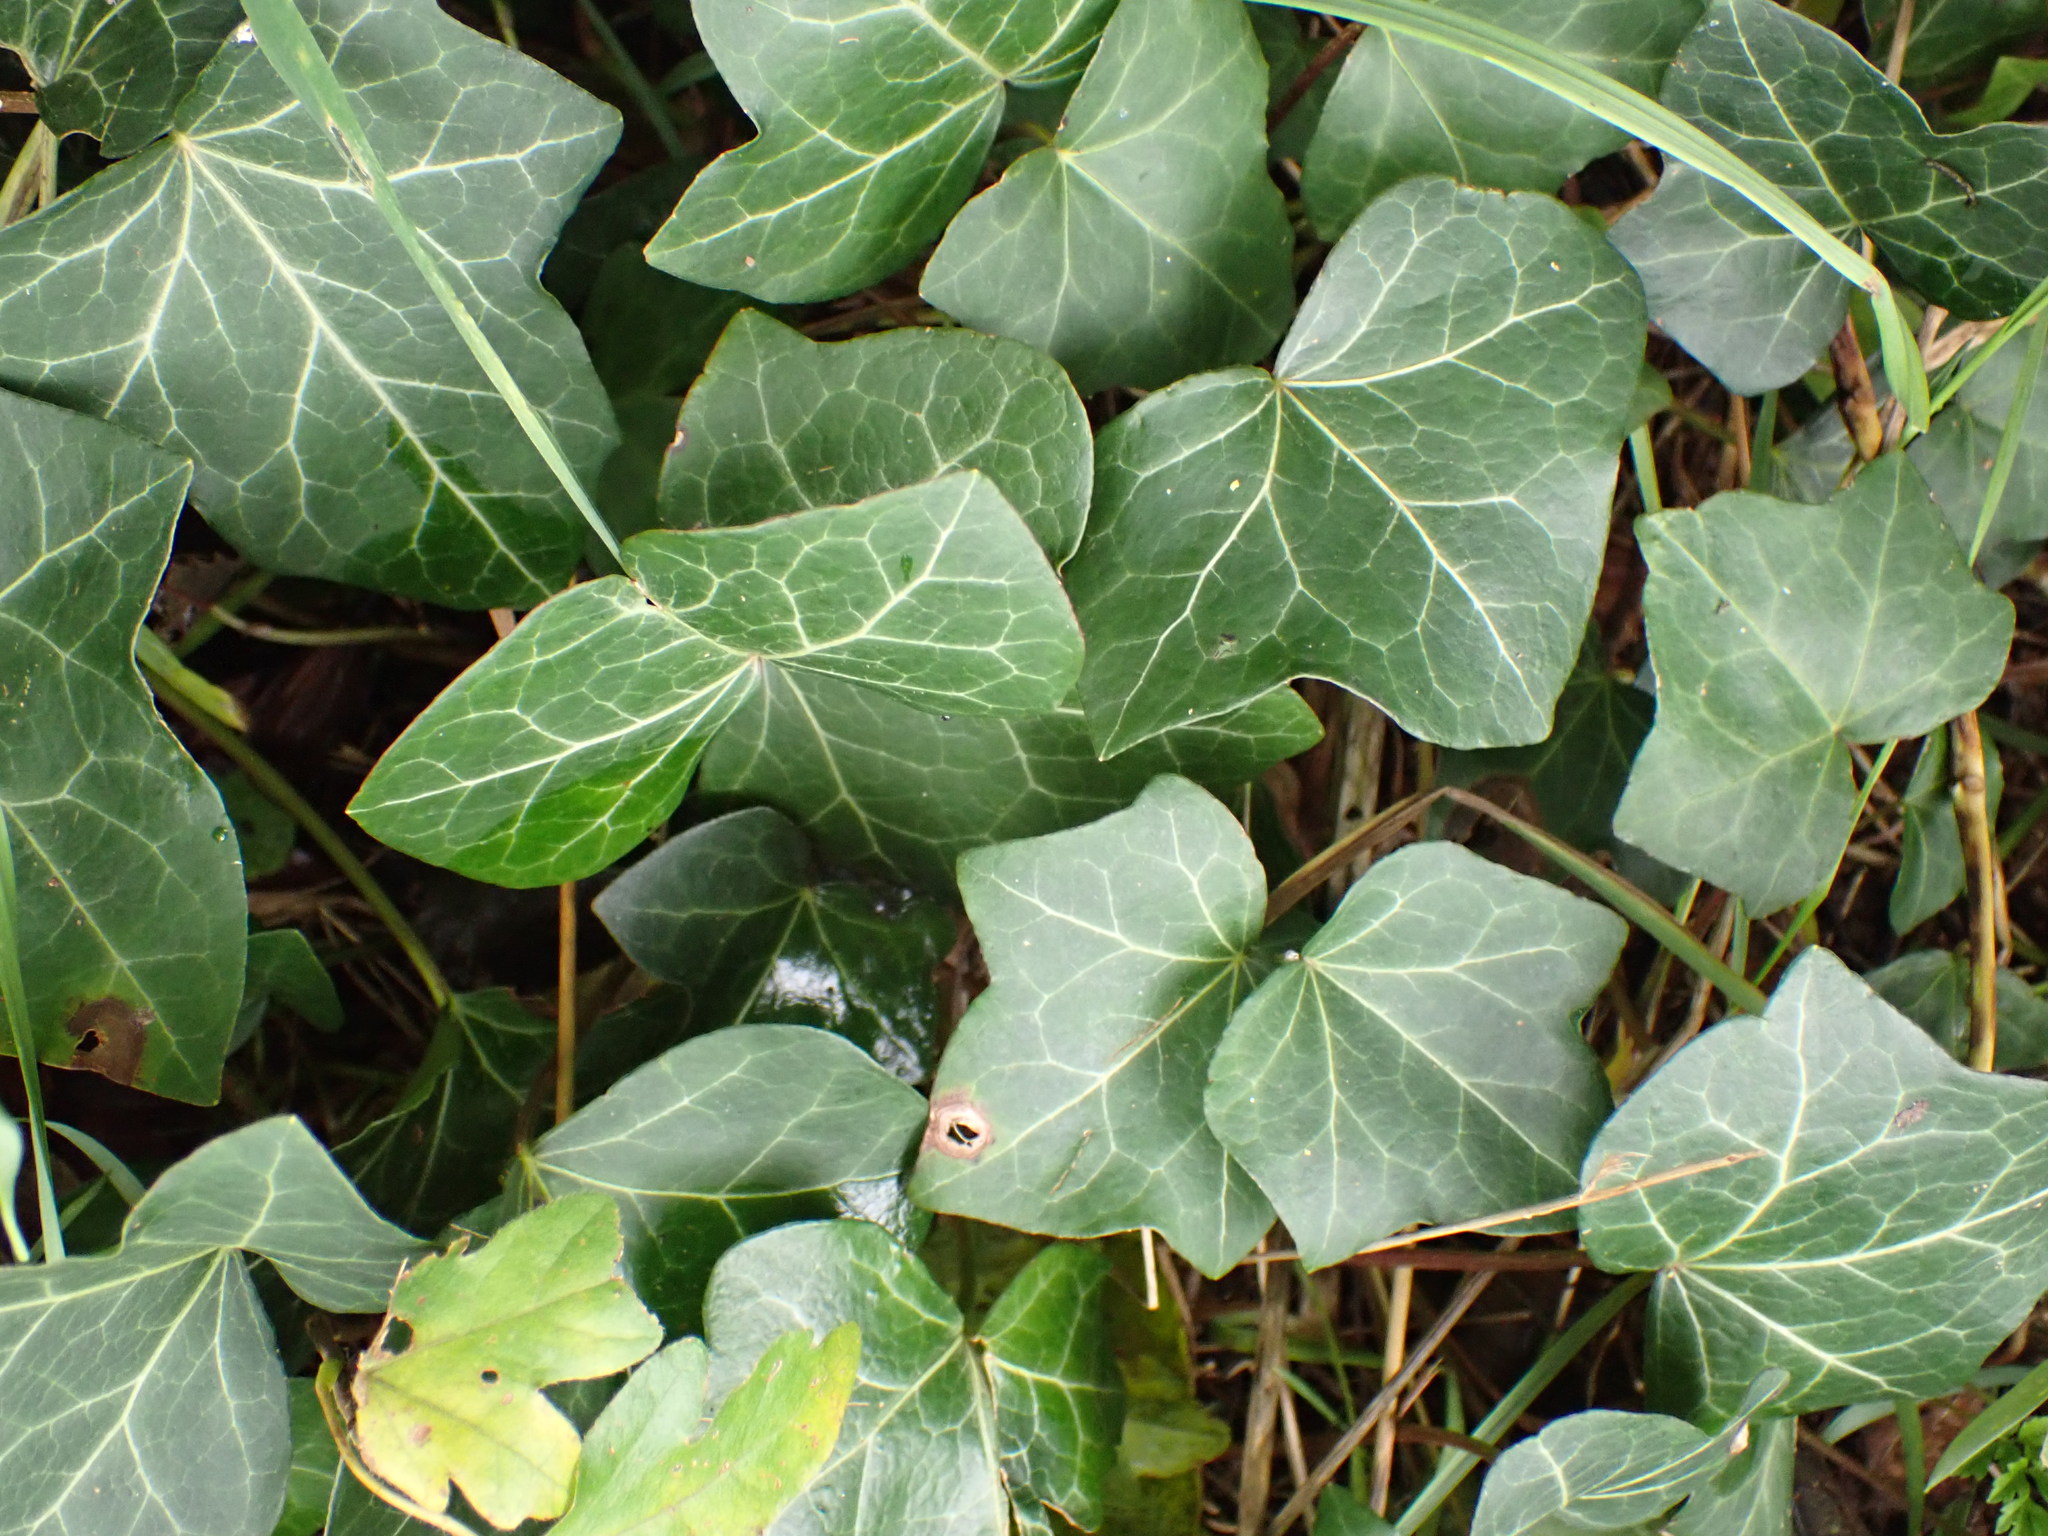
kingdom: Plantae
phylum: Tracheophyta
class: Magnoliopsida
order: Apiales
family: Araliaceae
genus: Hedera
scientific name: Hedera helix
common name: Ivy
